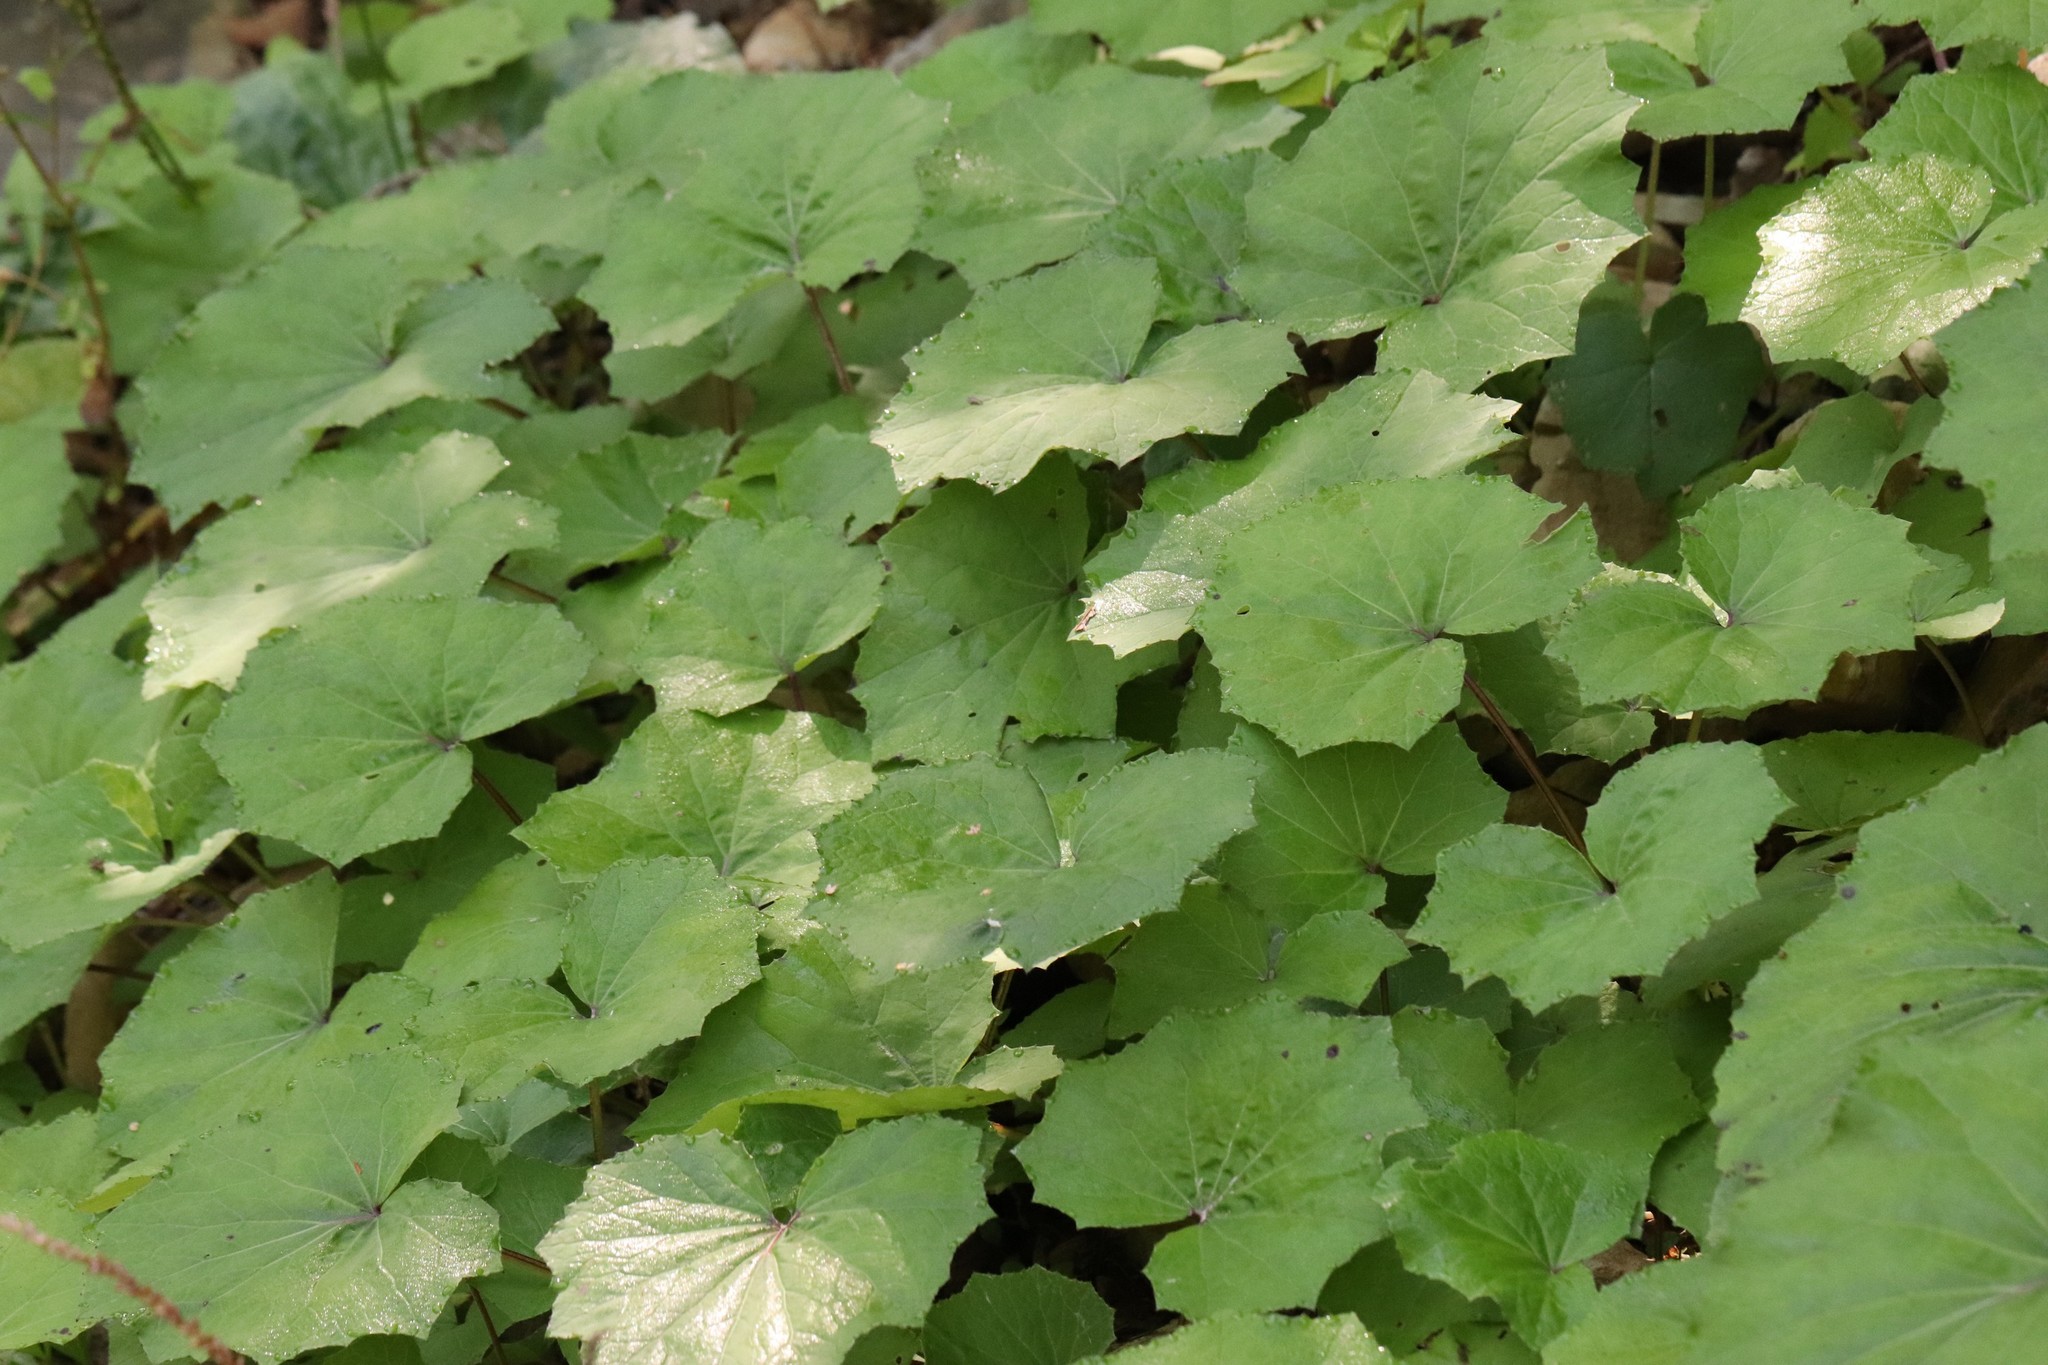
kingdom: Plantae
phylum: Tracheophyta
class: Magnoliopsida
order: Asterales
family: Asteraceae
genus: Tussilago
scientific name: Tussilago farfara
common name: Coltsfoot
